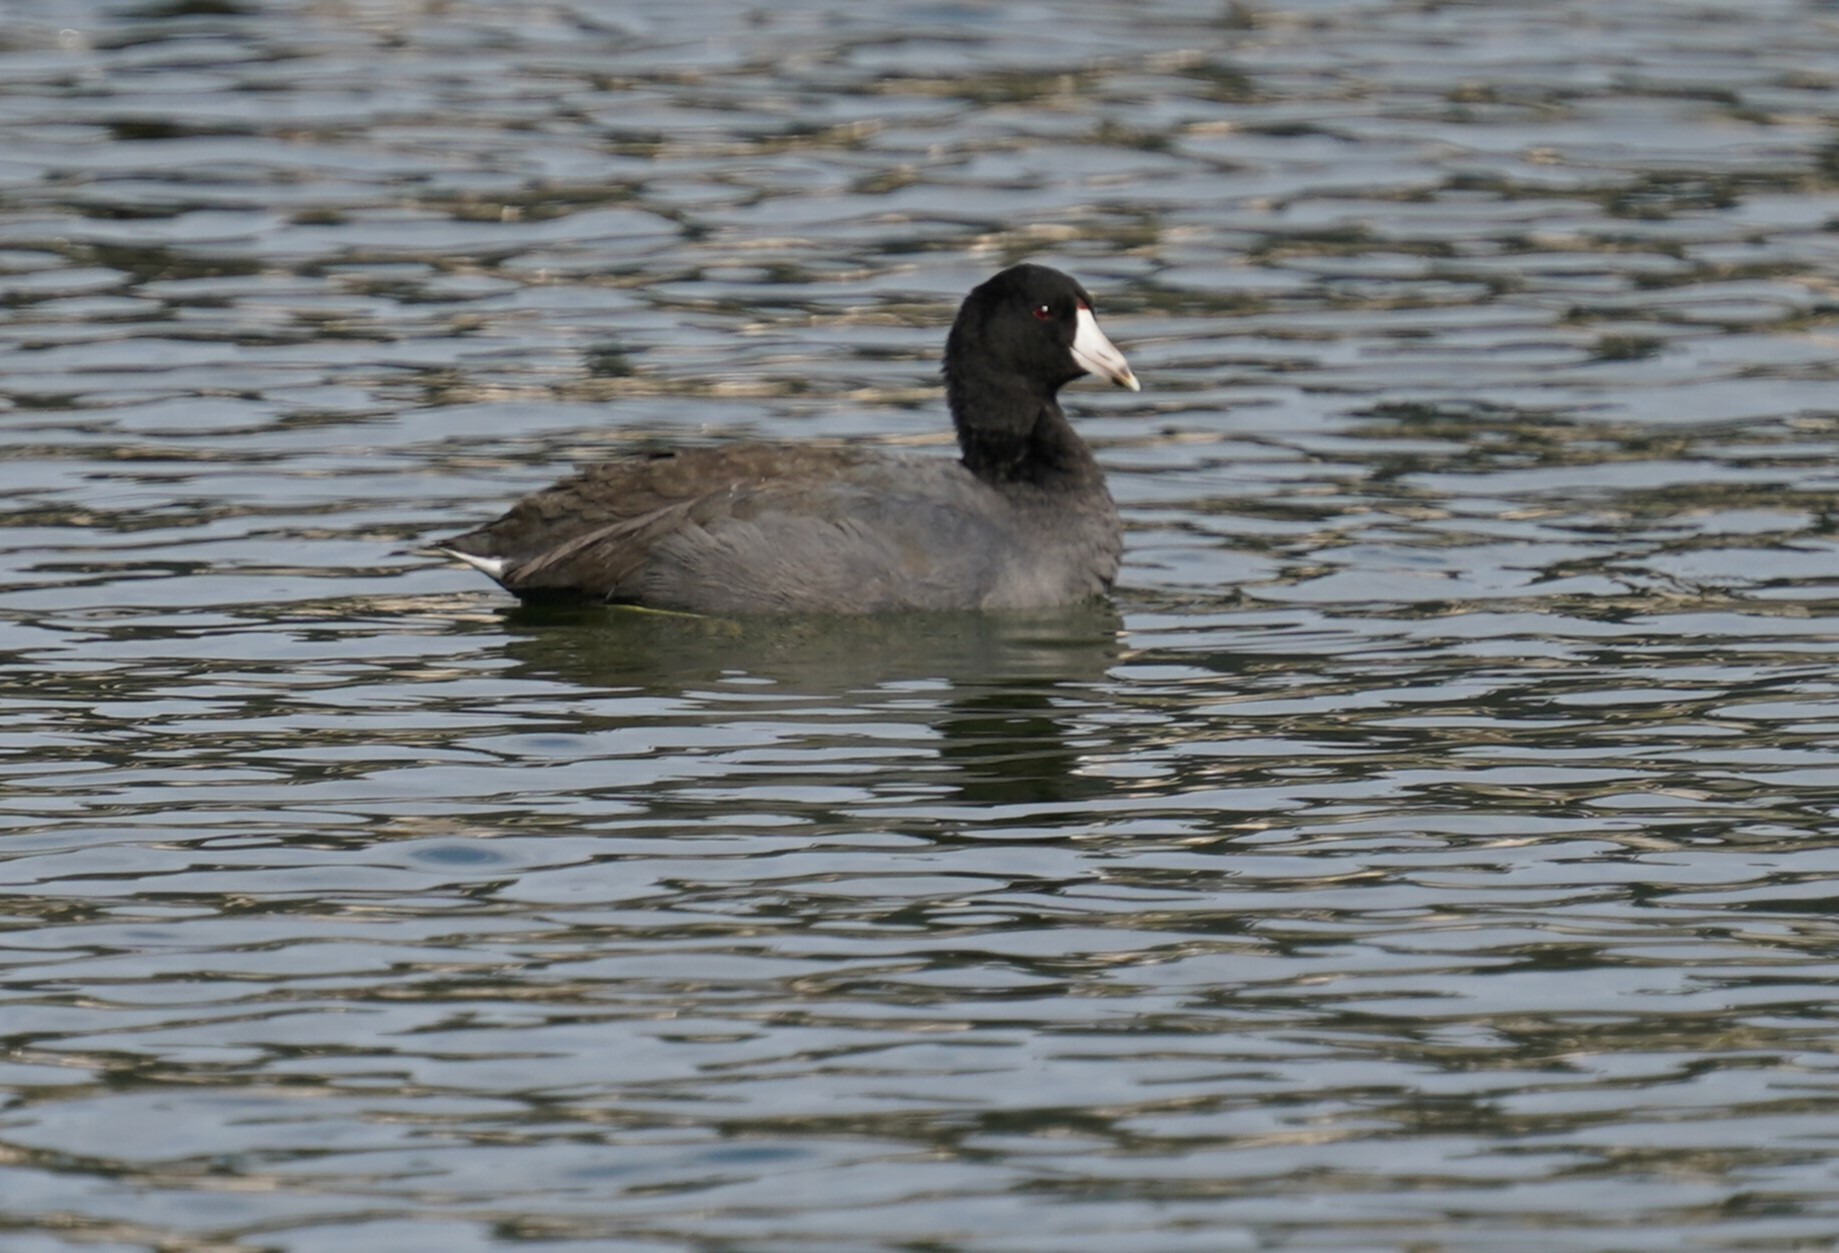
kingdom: Animalia
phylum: Chordata
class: Aves
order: Gruiformes
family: Rallidae
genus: Fulica
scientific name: Fulica americana
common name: American coot
